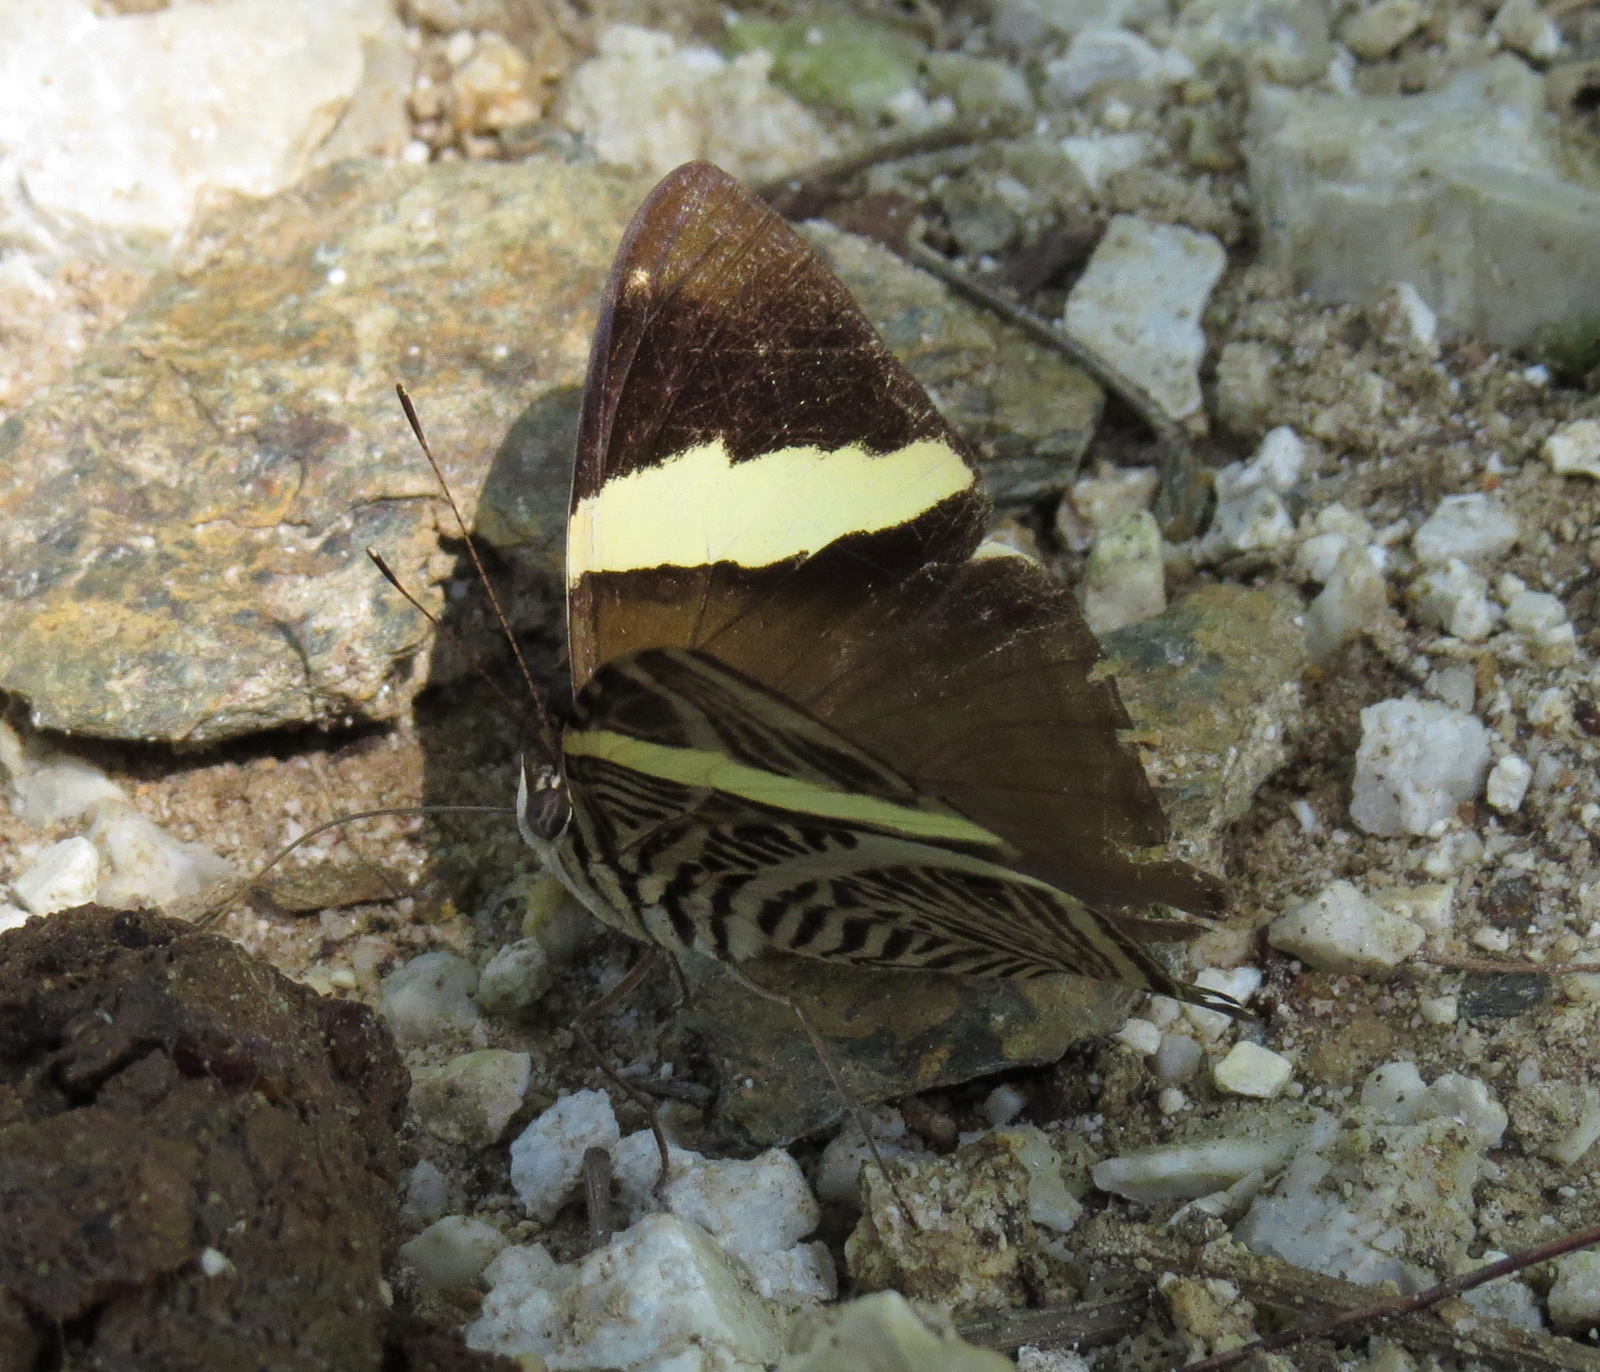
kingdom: Animalia
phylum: Arthropoda
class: Insecta
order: Lepidoptera
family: Nymphalidae
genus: Colobura
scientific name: Colobura dirce
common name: Dirce beauty
